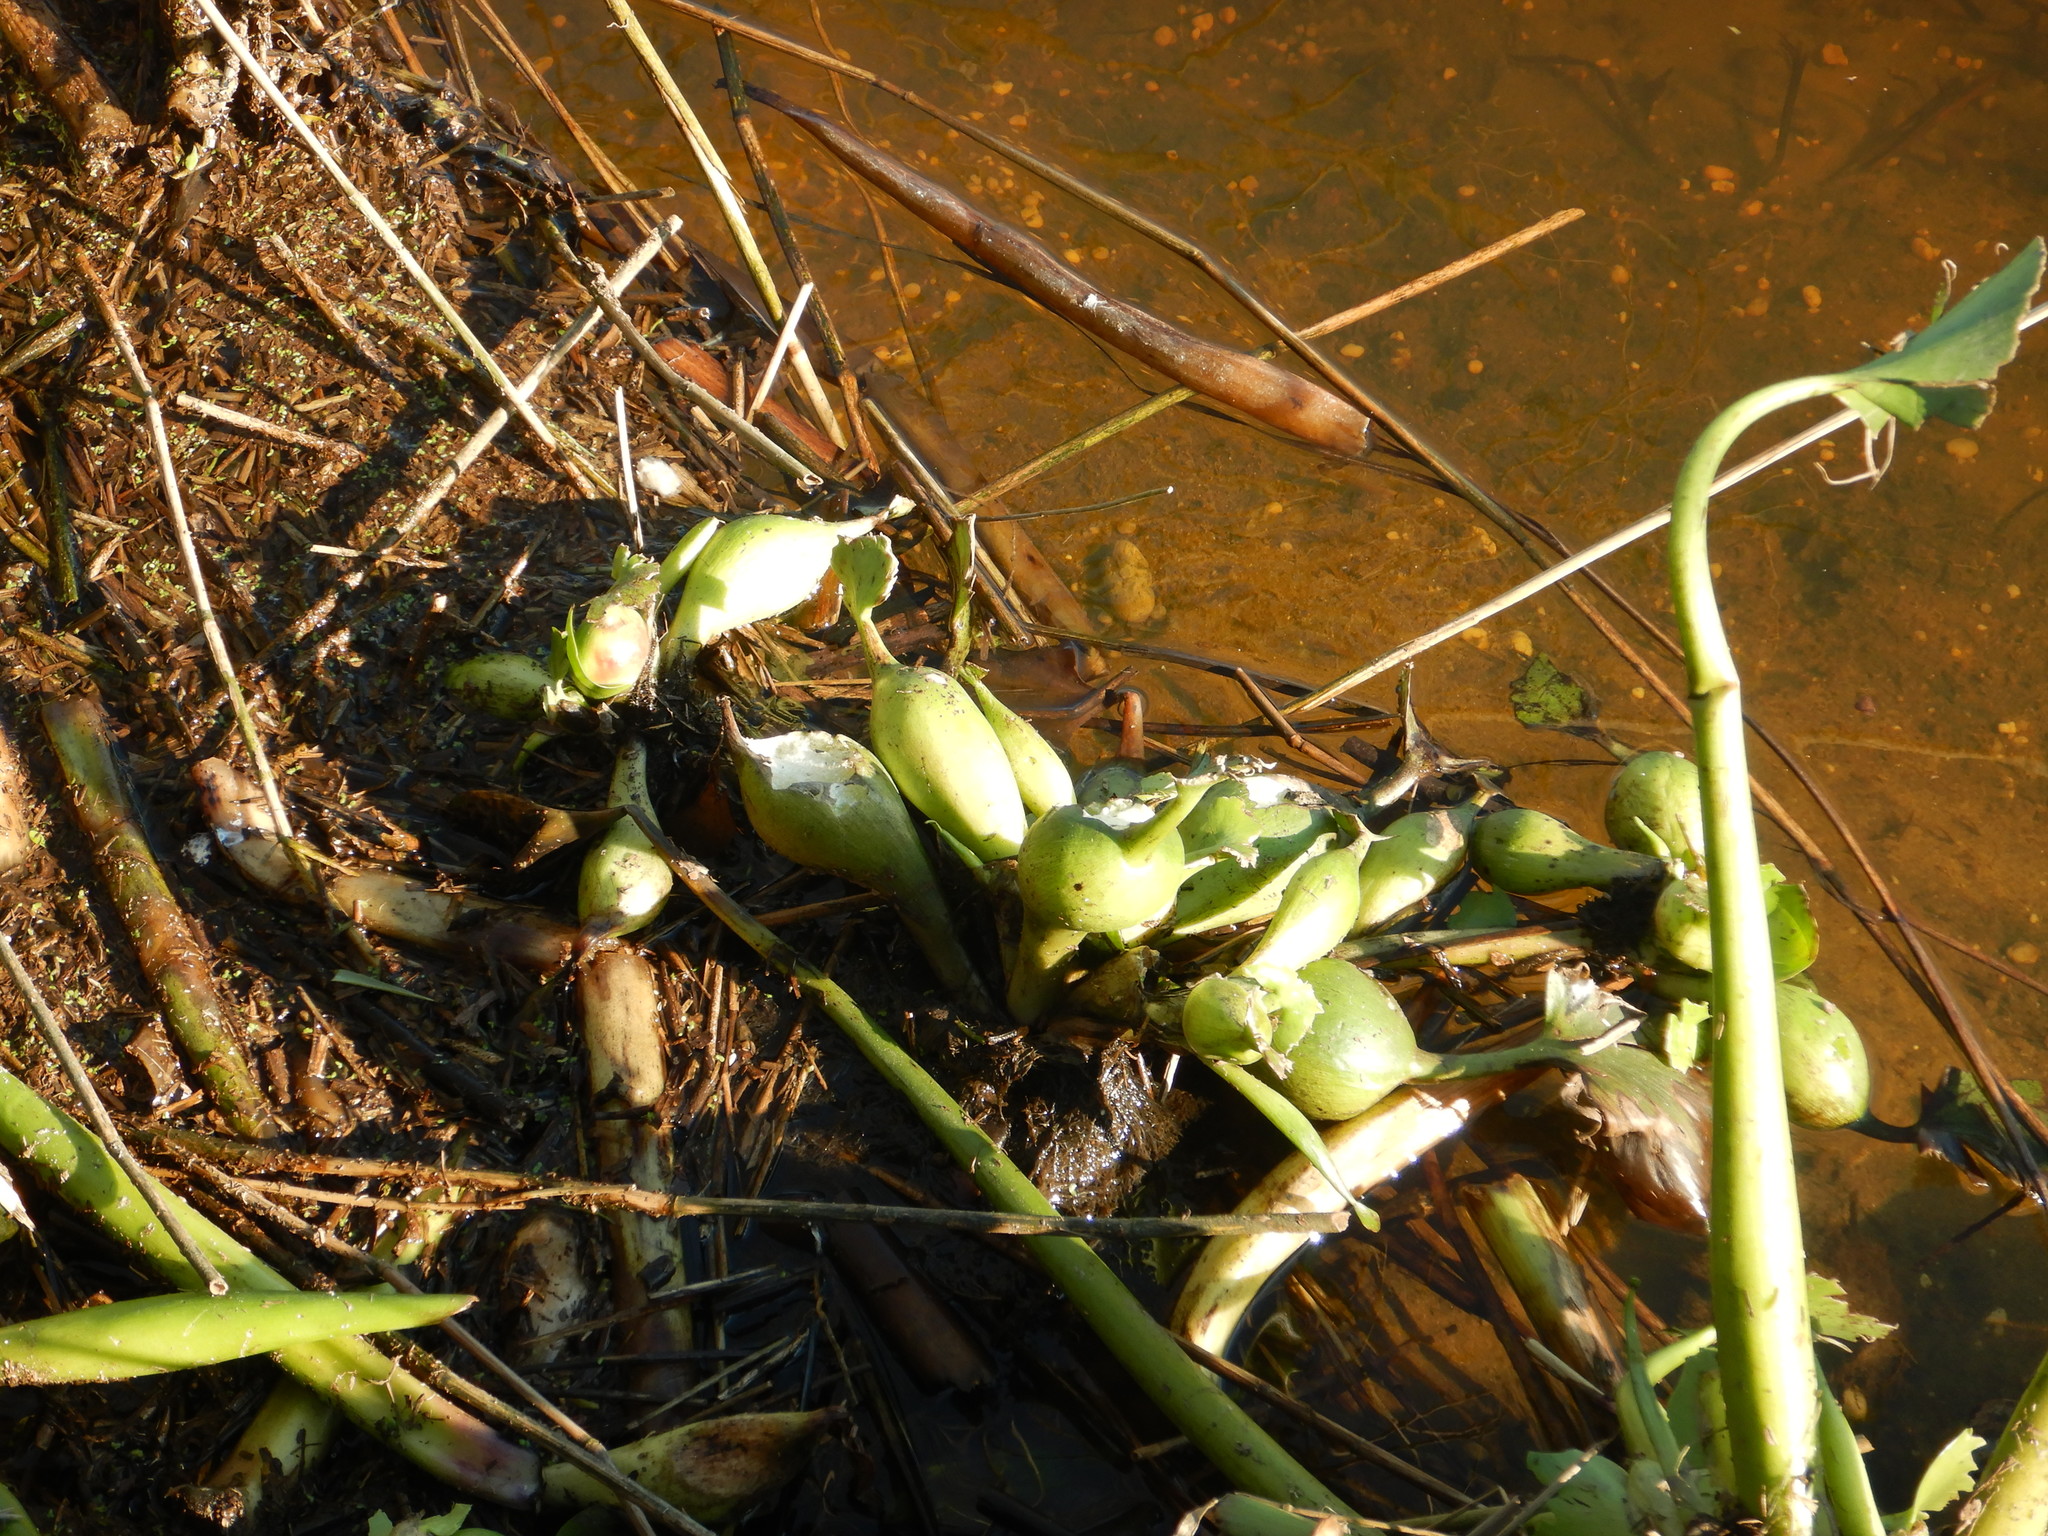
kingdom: Plantae
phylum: Tracheophyta
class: Liliopsida
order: Commelinales
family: Pontederiaceae
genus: Pontederia
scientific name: Pontederia crassipes
